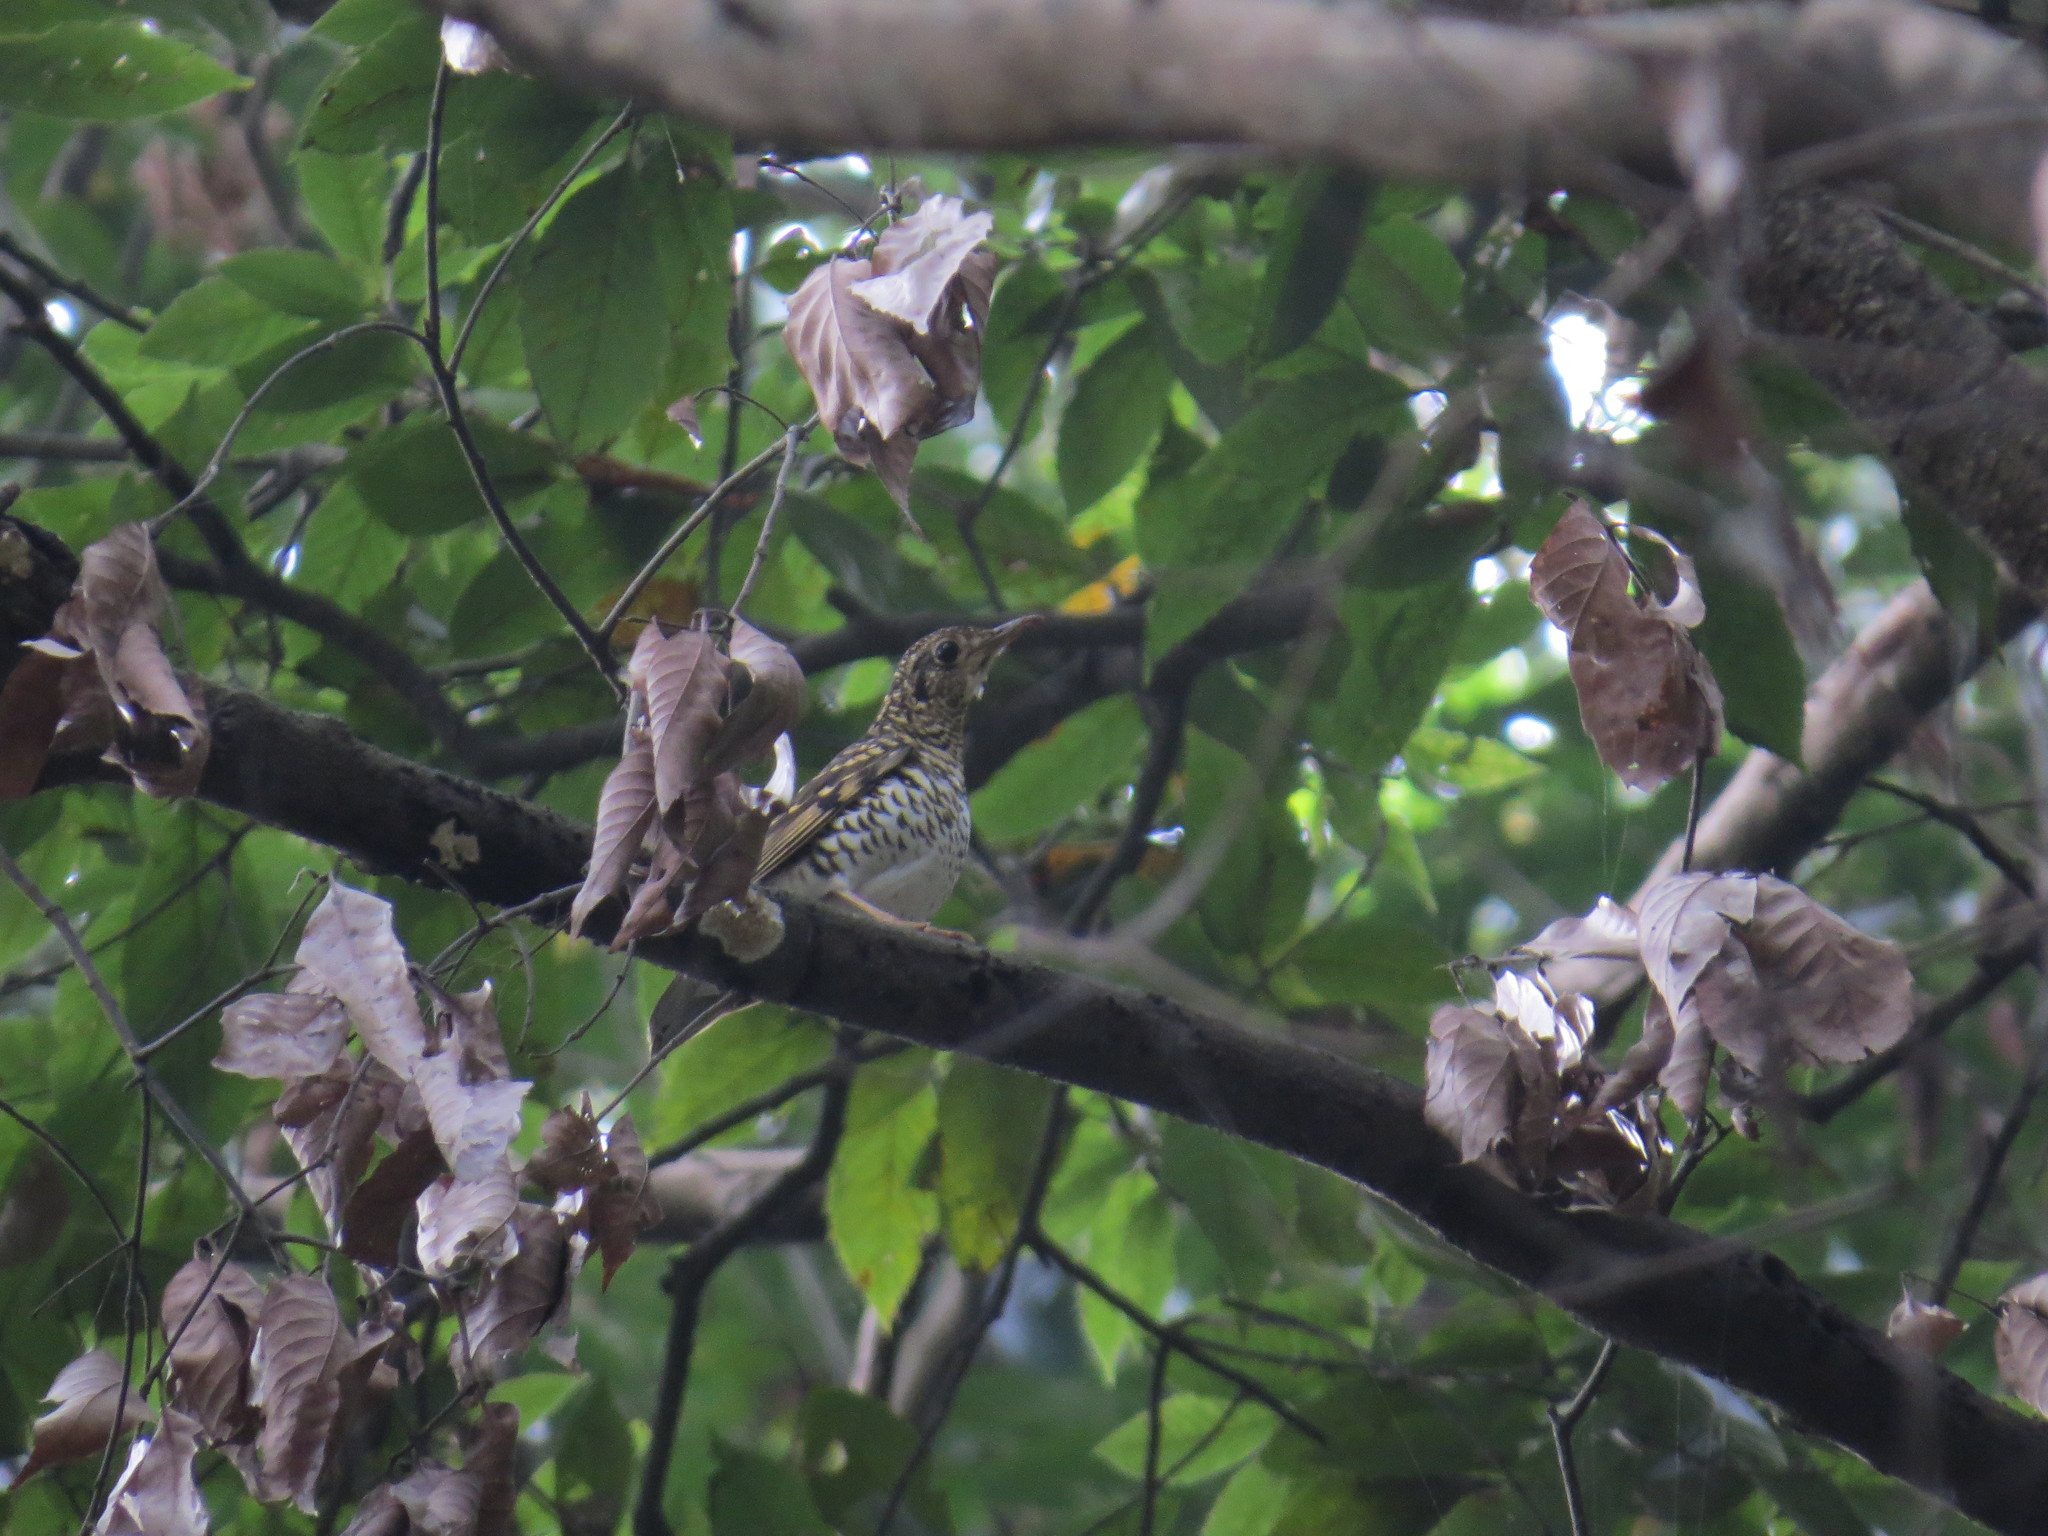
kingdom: Animalia
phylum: Chordata
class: Aves
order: Passeriformes
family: Turdidae
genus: Zoothera
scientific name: Zoothera dauma
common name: Scaly thrush
